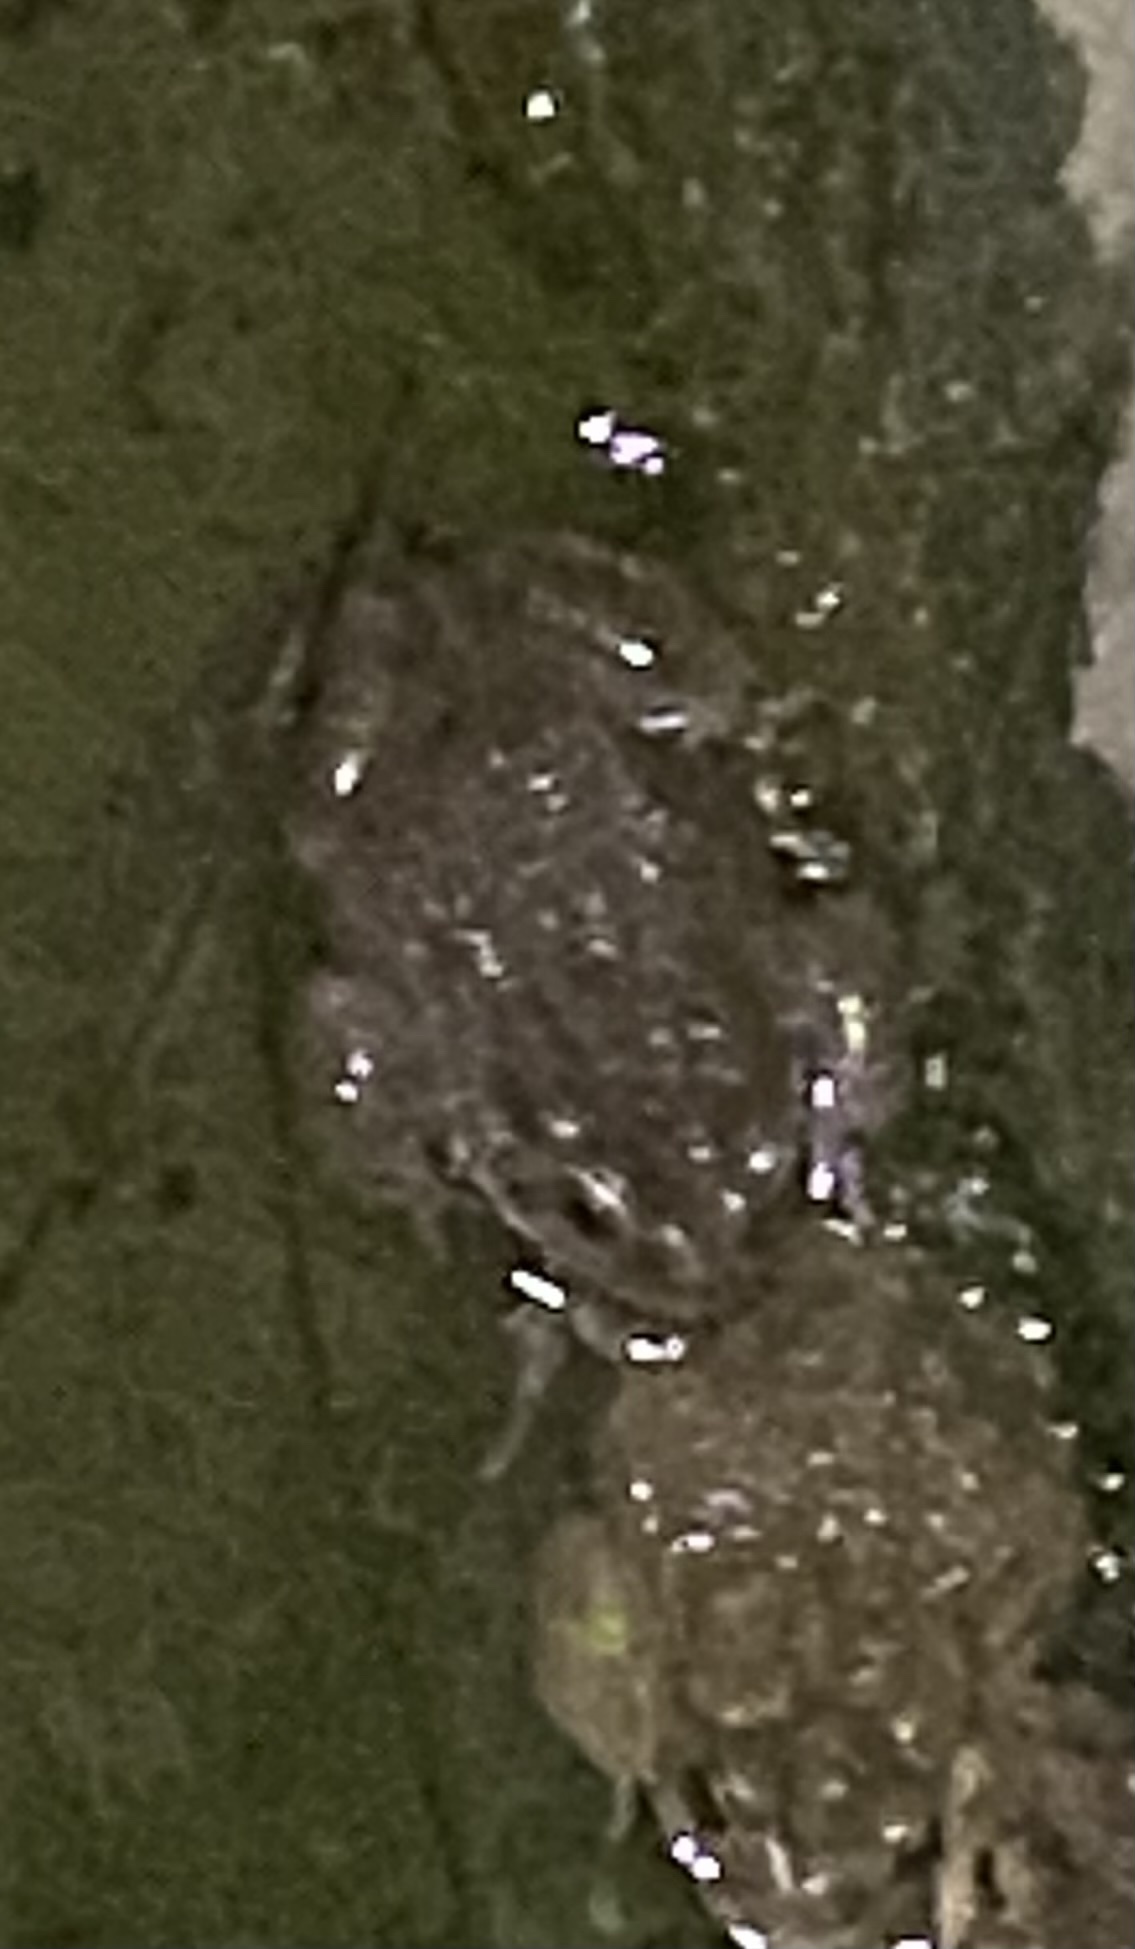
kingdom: Animalia
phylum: Chordata
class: Amphibia
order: Anura
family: Bufonidae
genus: Bufotes
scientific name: Bufotes viridis
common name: European green toad
